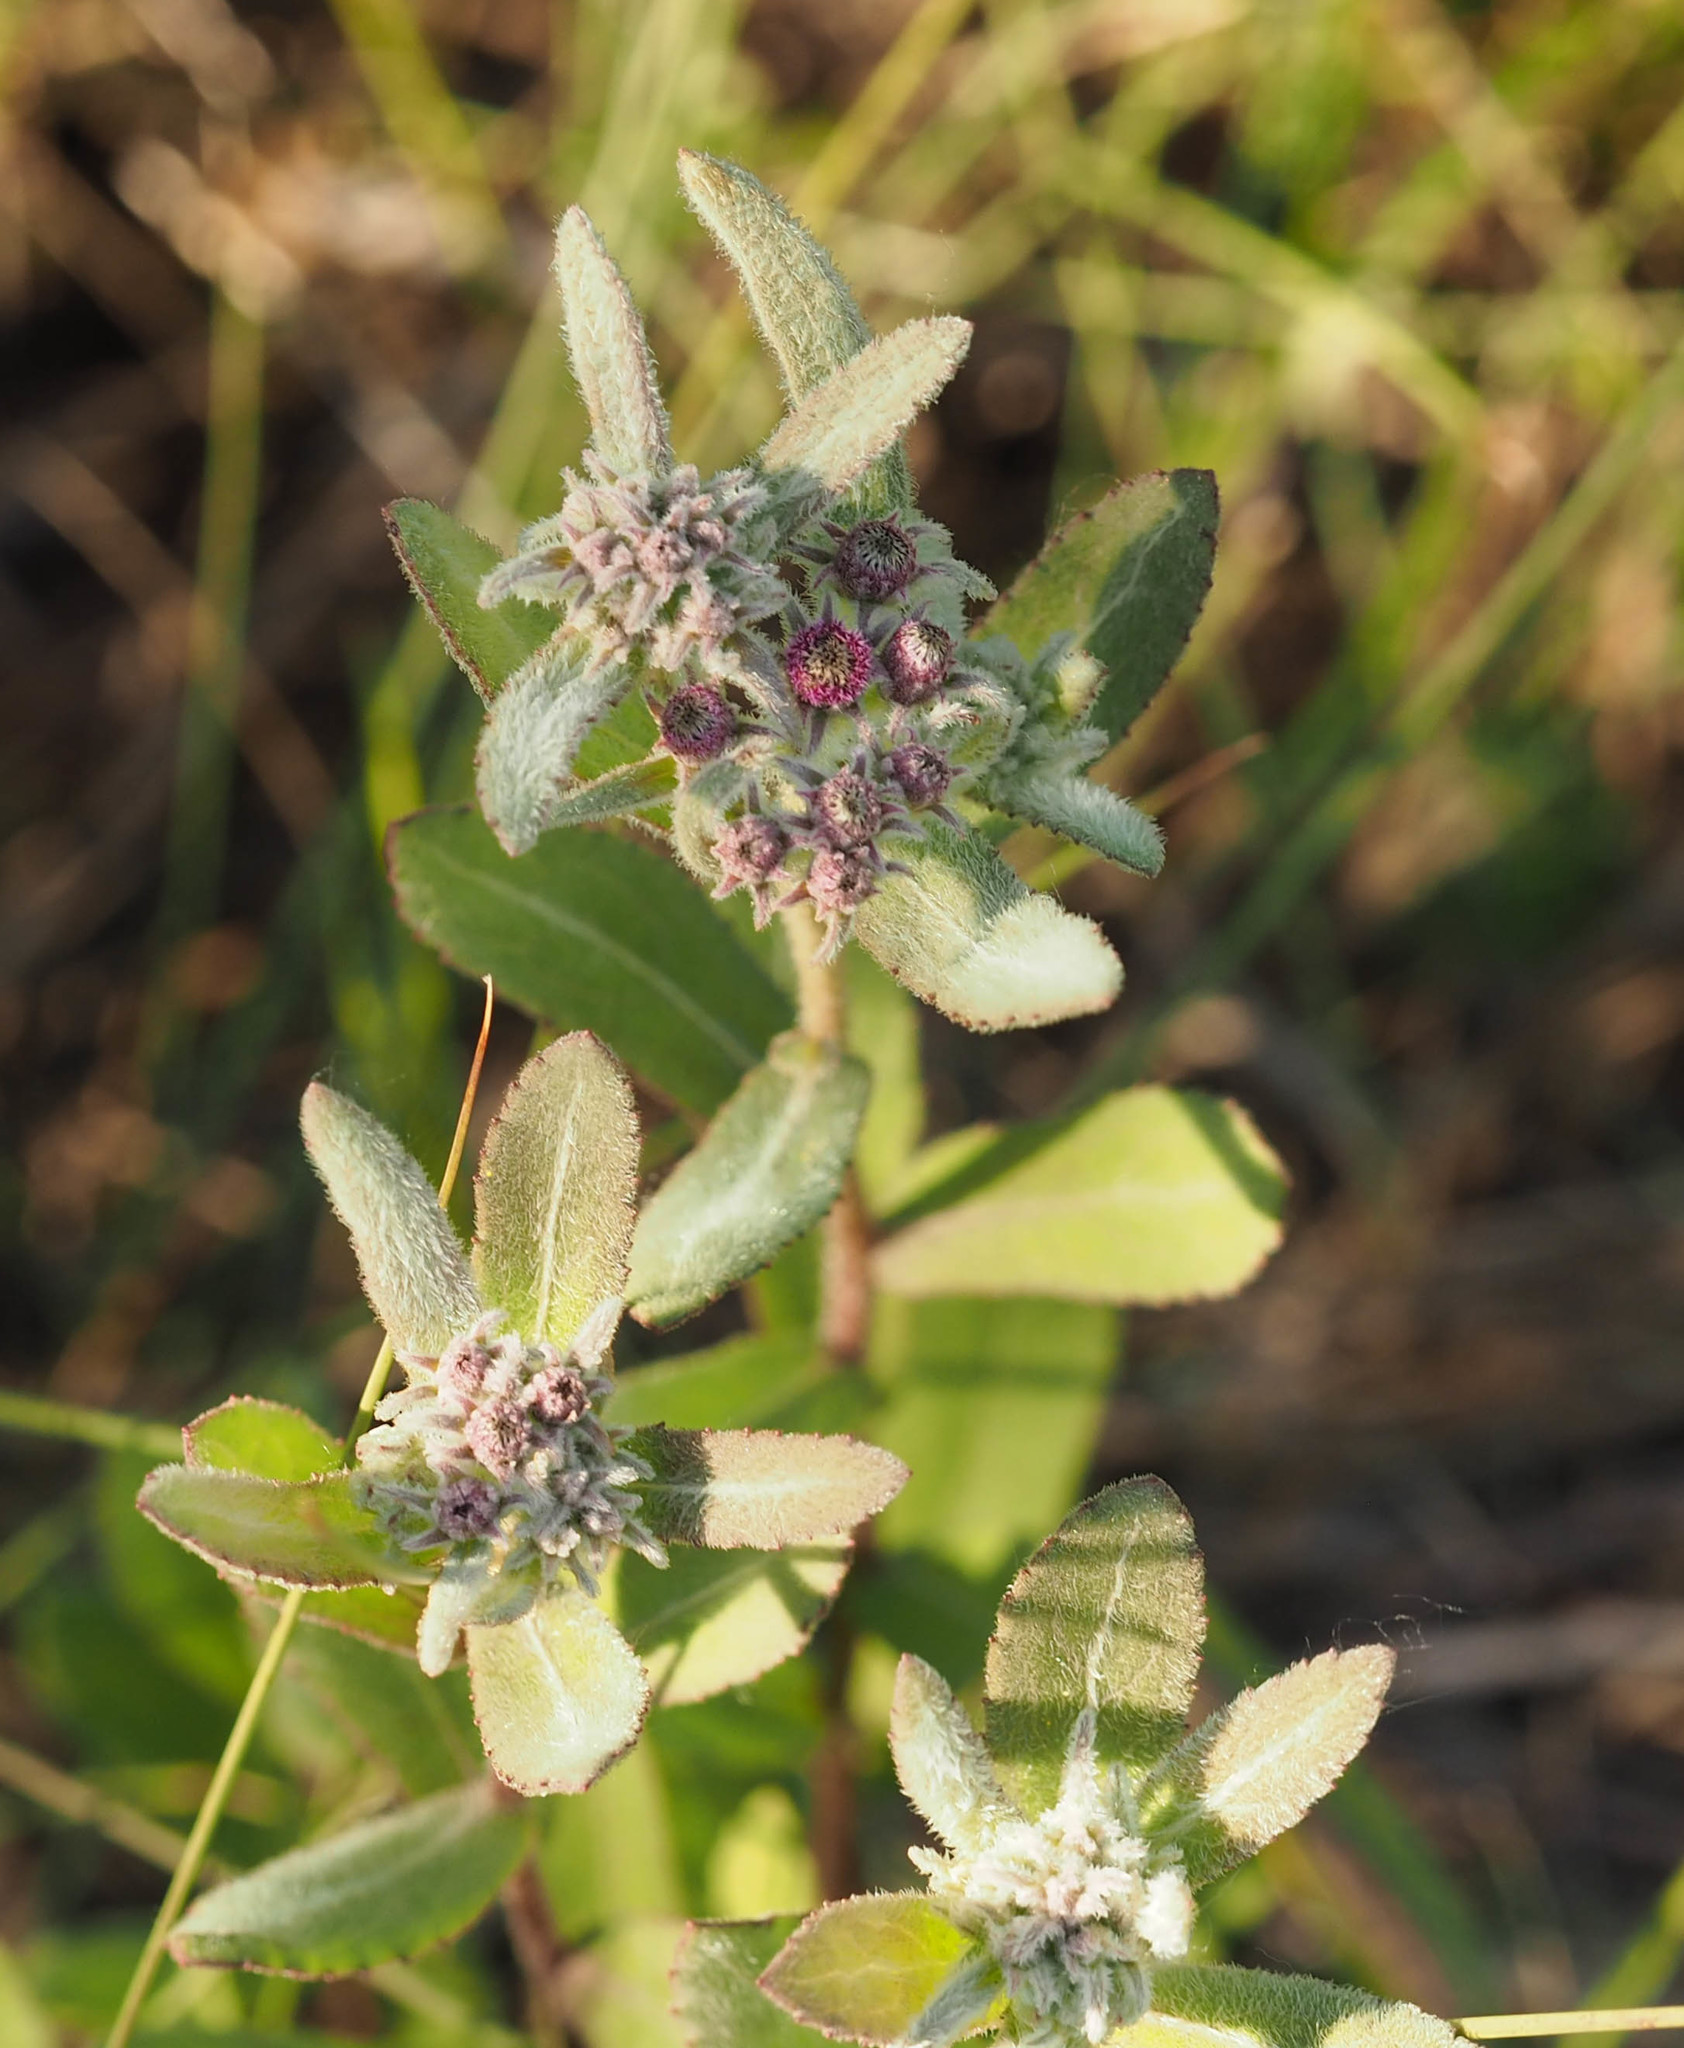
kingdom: Plantae
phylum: Tracheophyta
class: Magnoliopsida
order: Asterales
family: Asteraceae
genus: Pluchea
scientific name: Pluchea baccharis
